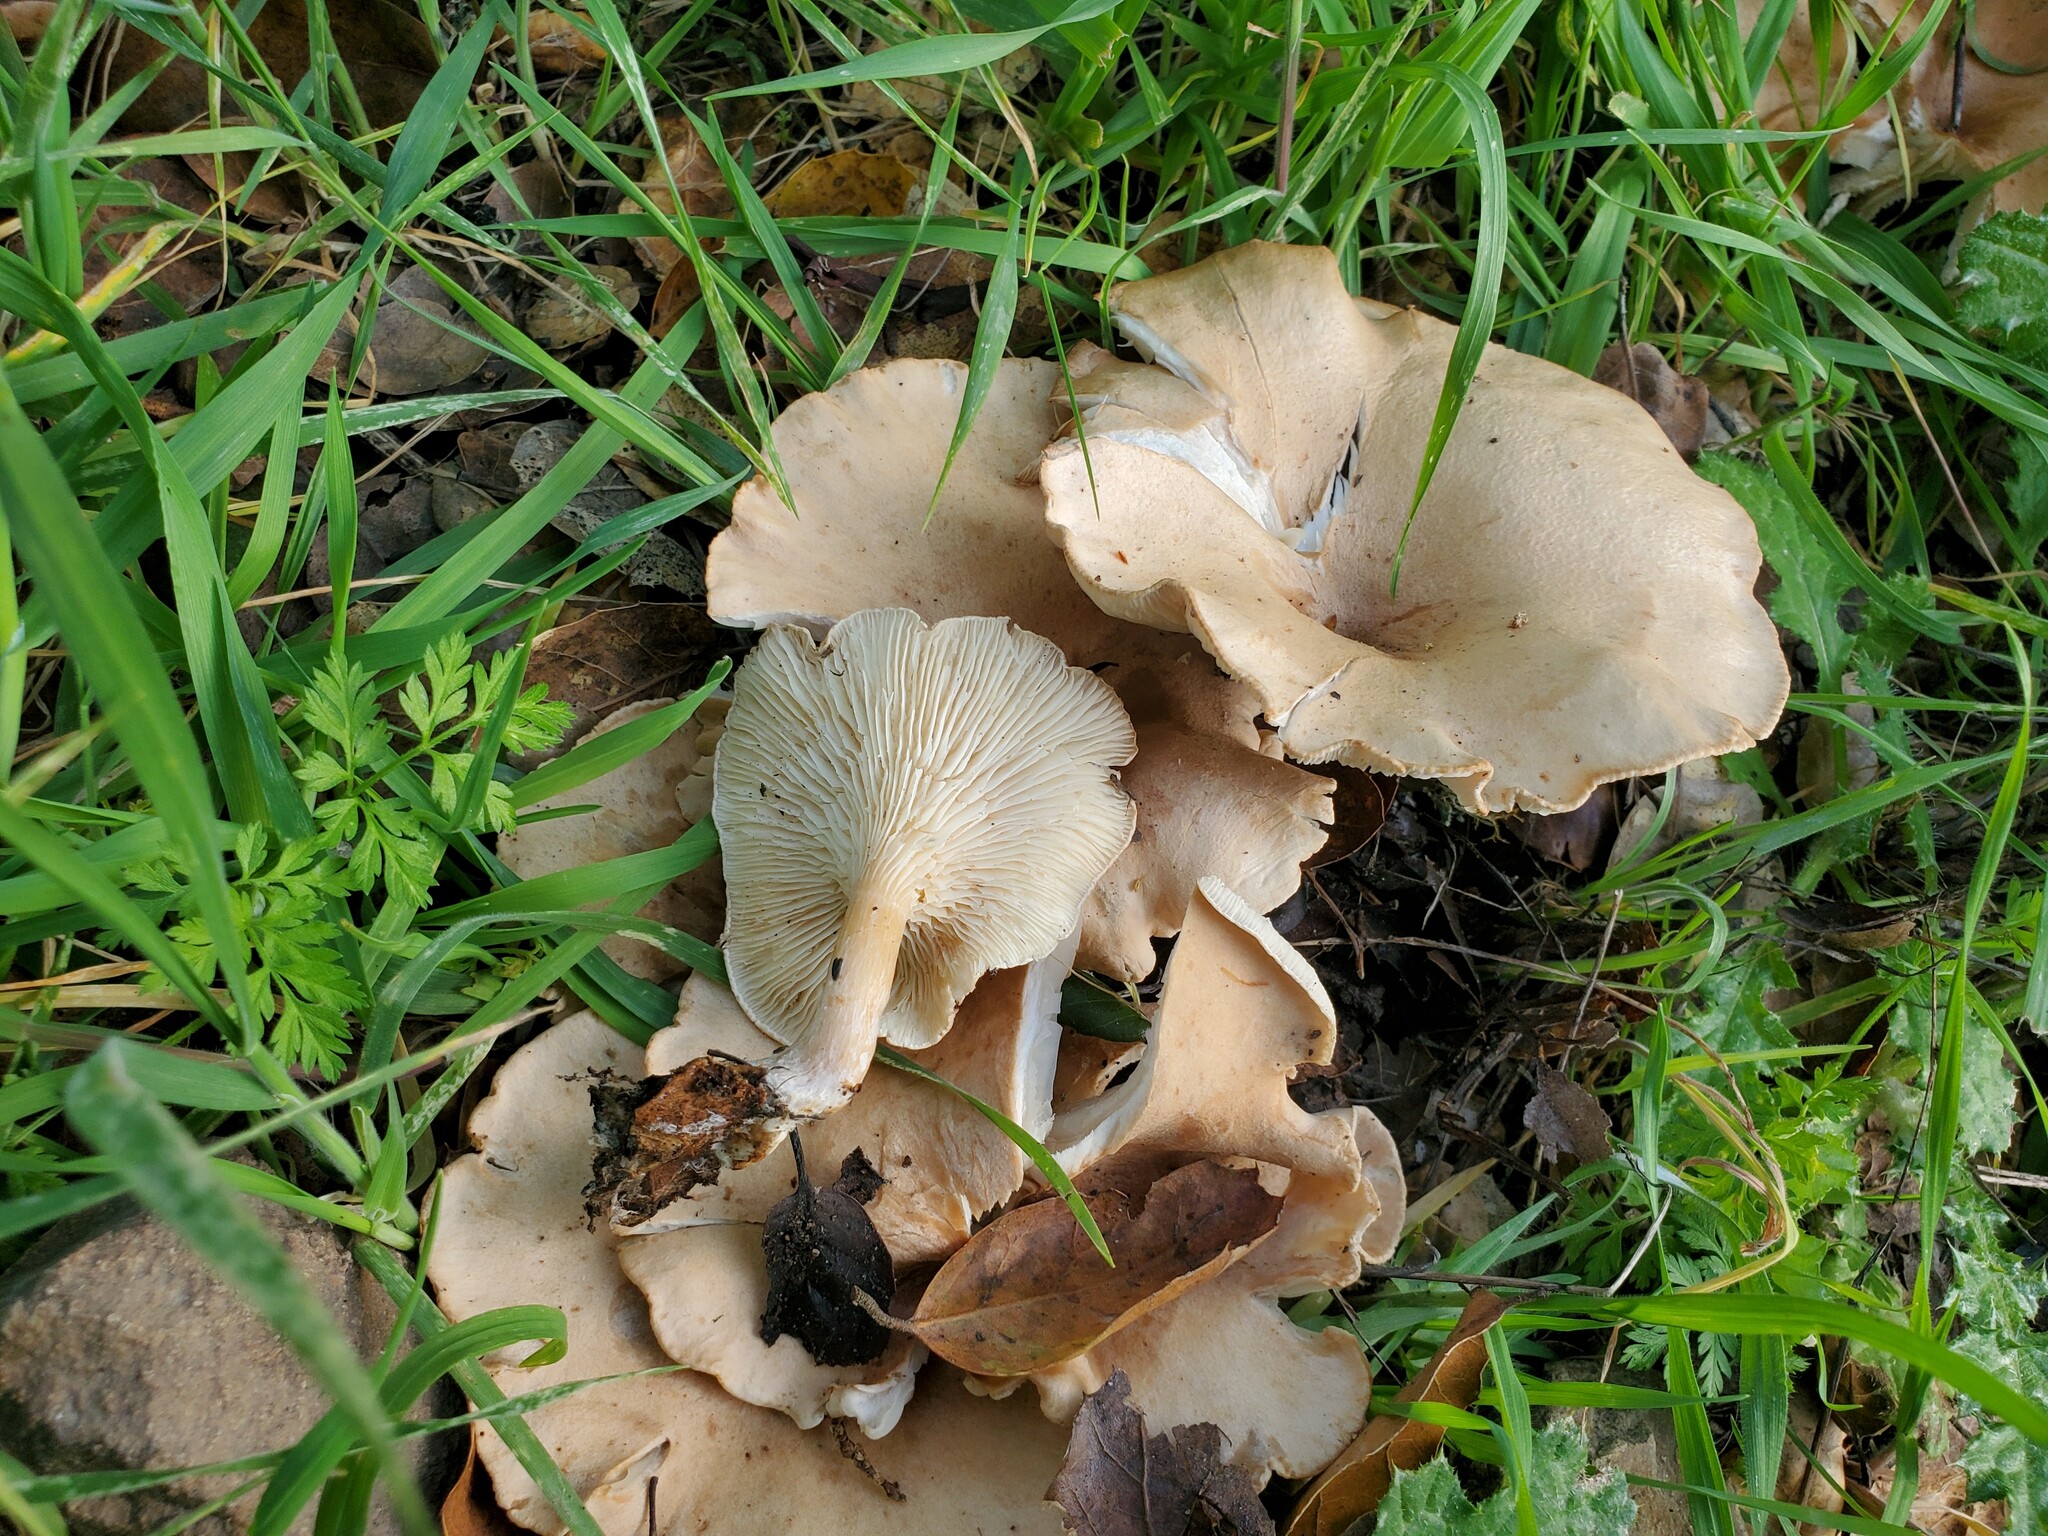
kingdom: Fungi
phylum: Basidiomycota
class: Agaricomycetes
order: Agaricales
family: Tricholomataceae
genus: Infundibulicybe
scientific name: Infundibulicybe gibba
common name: Common funnel
